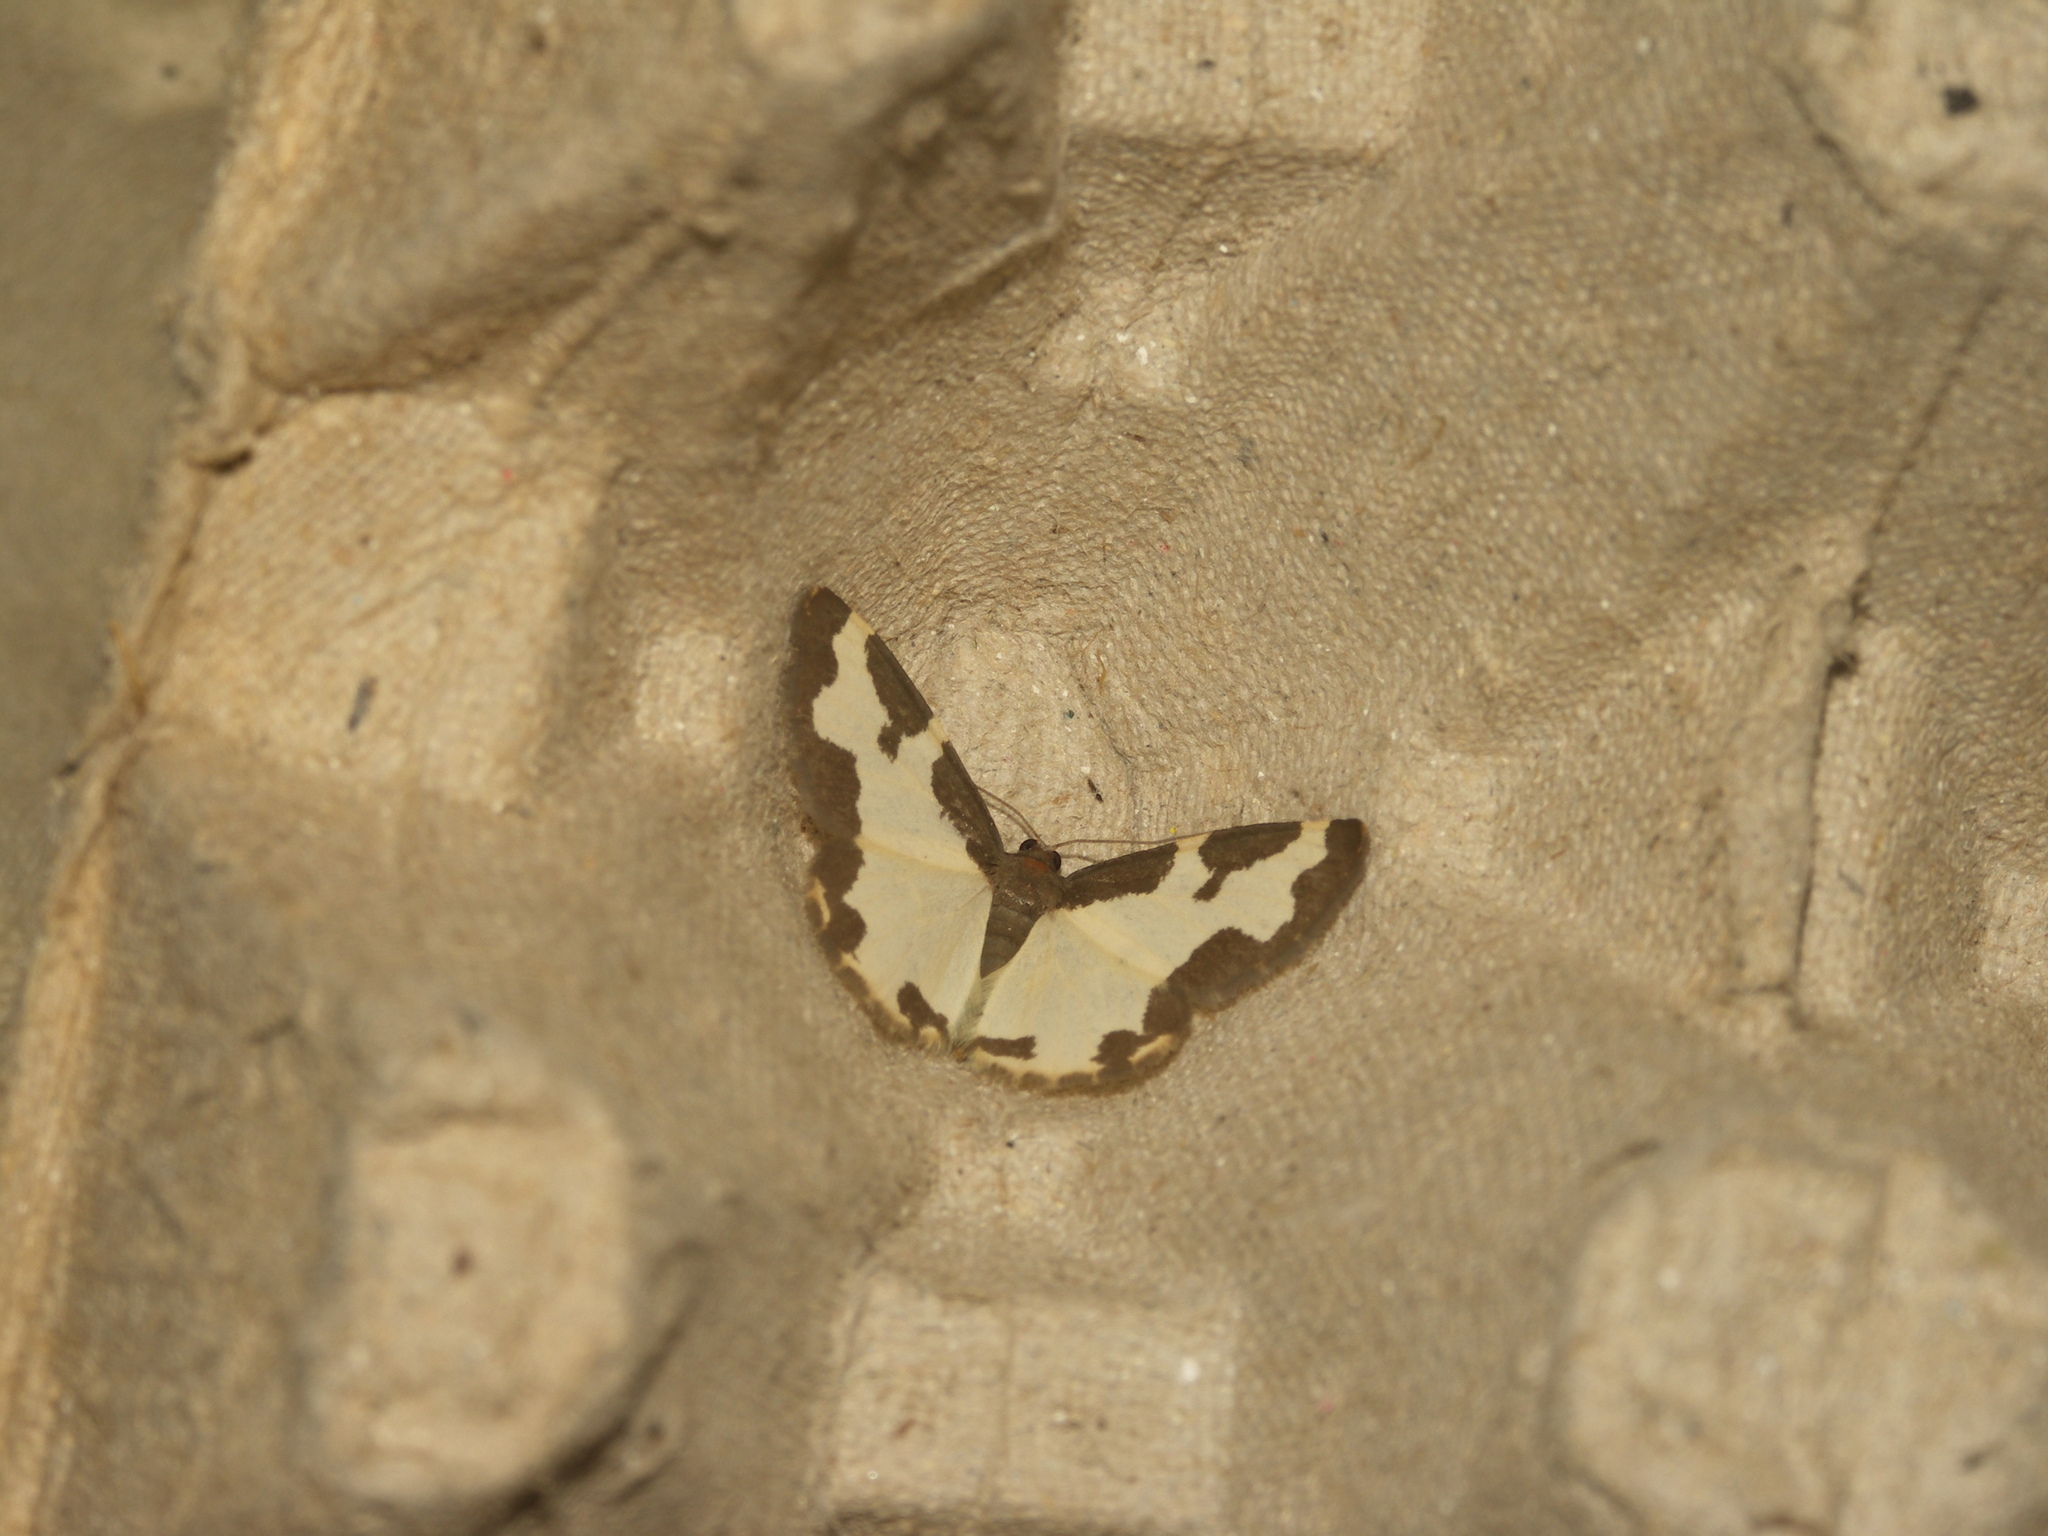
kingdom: Animalia
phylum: Arthropoda
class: Insecta
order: Lepidoptera
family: Geometridae
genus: Lomaspilis
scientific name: Lomaspilis marginata
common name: Clouded border
